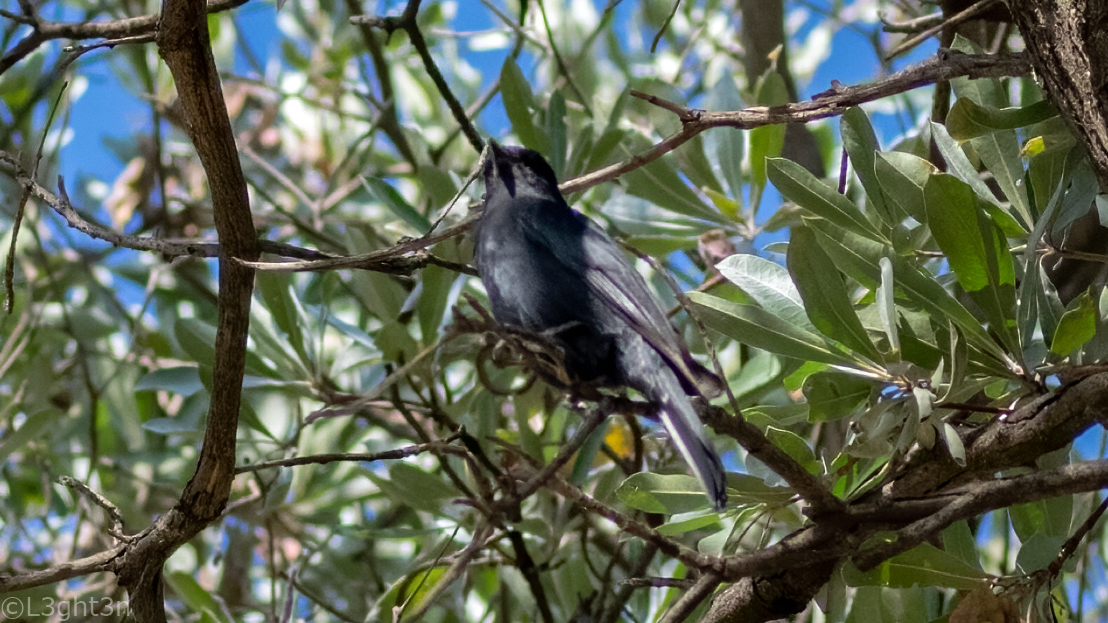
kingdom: Animalia
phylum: Chordata
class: Aves
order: Passeriformes
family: Muscicapidae
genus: Melaenornis
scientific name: Melaenornis pammelaina
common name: Southern black flycatcher
